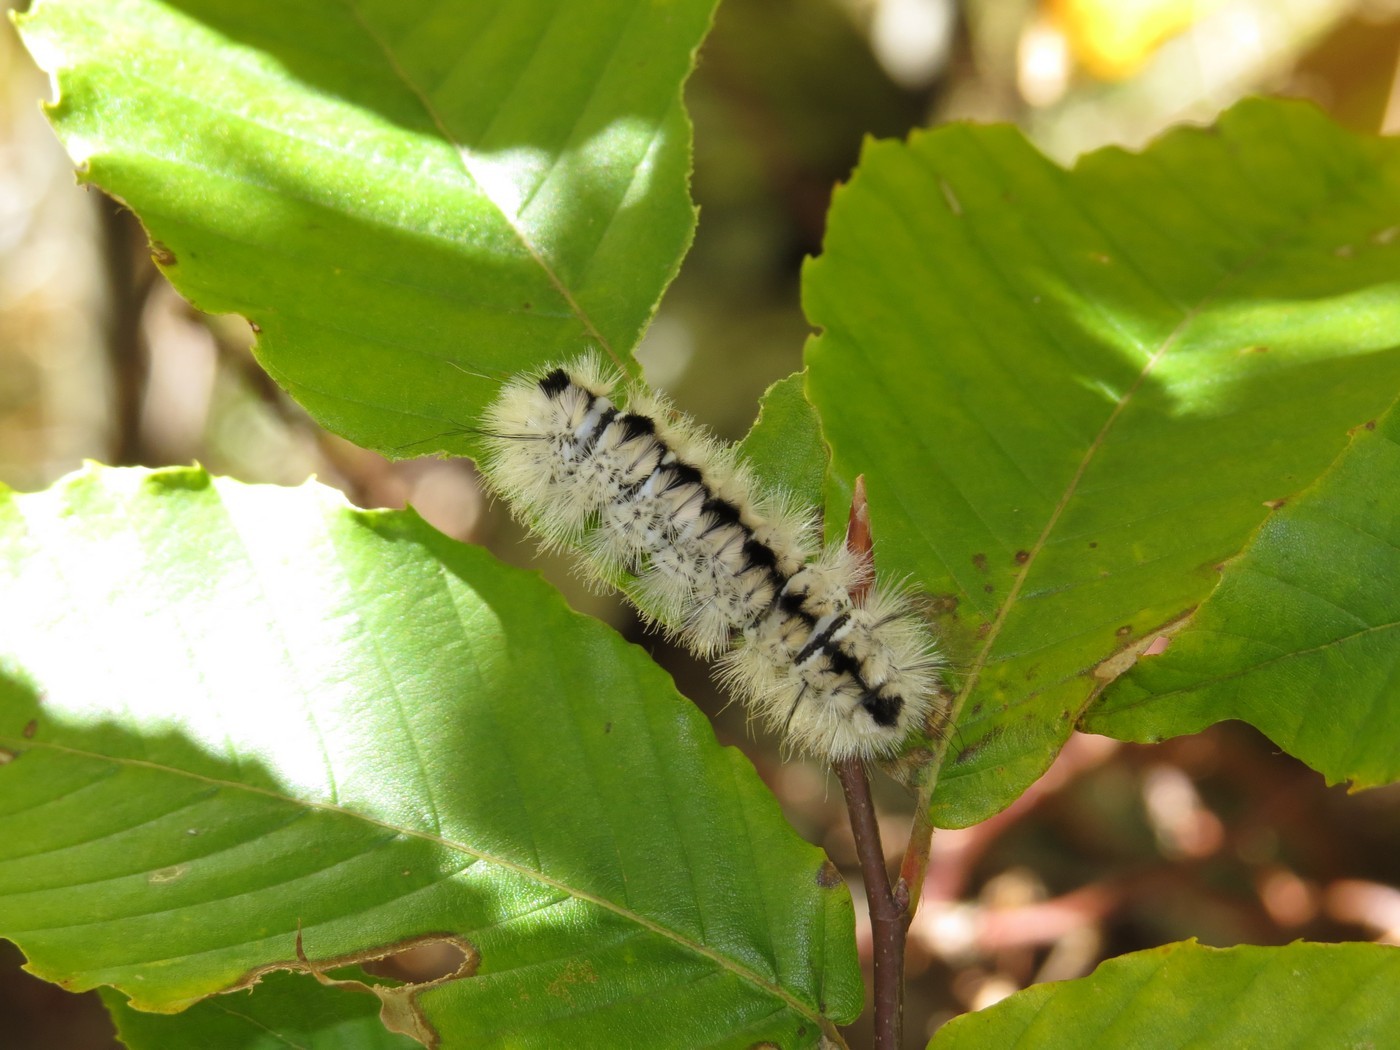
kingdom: Animalia
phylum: Arthropoda
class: Insecta
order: Lepidoptera
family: Erebidae
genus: Lophocampa
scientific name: Lophocampa caryae
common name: Hickory tussock moth
